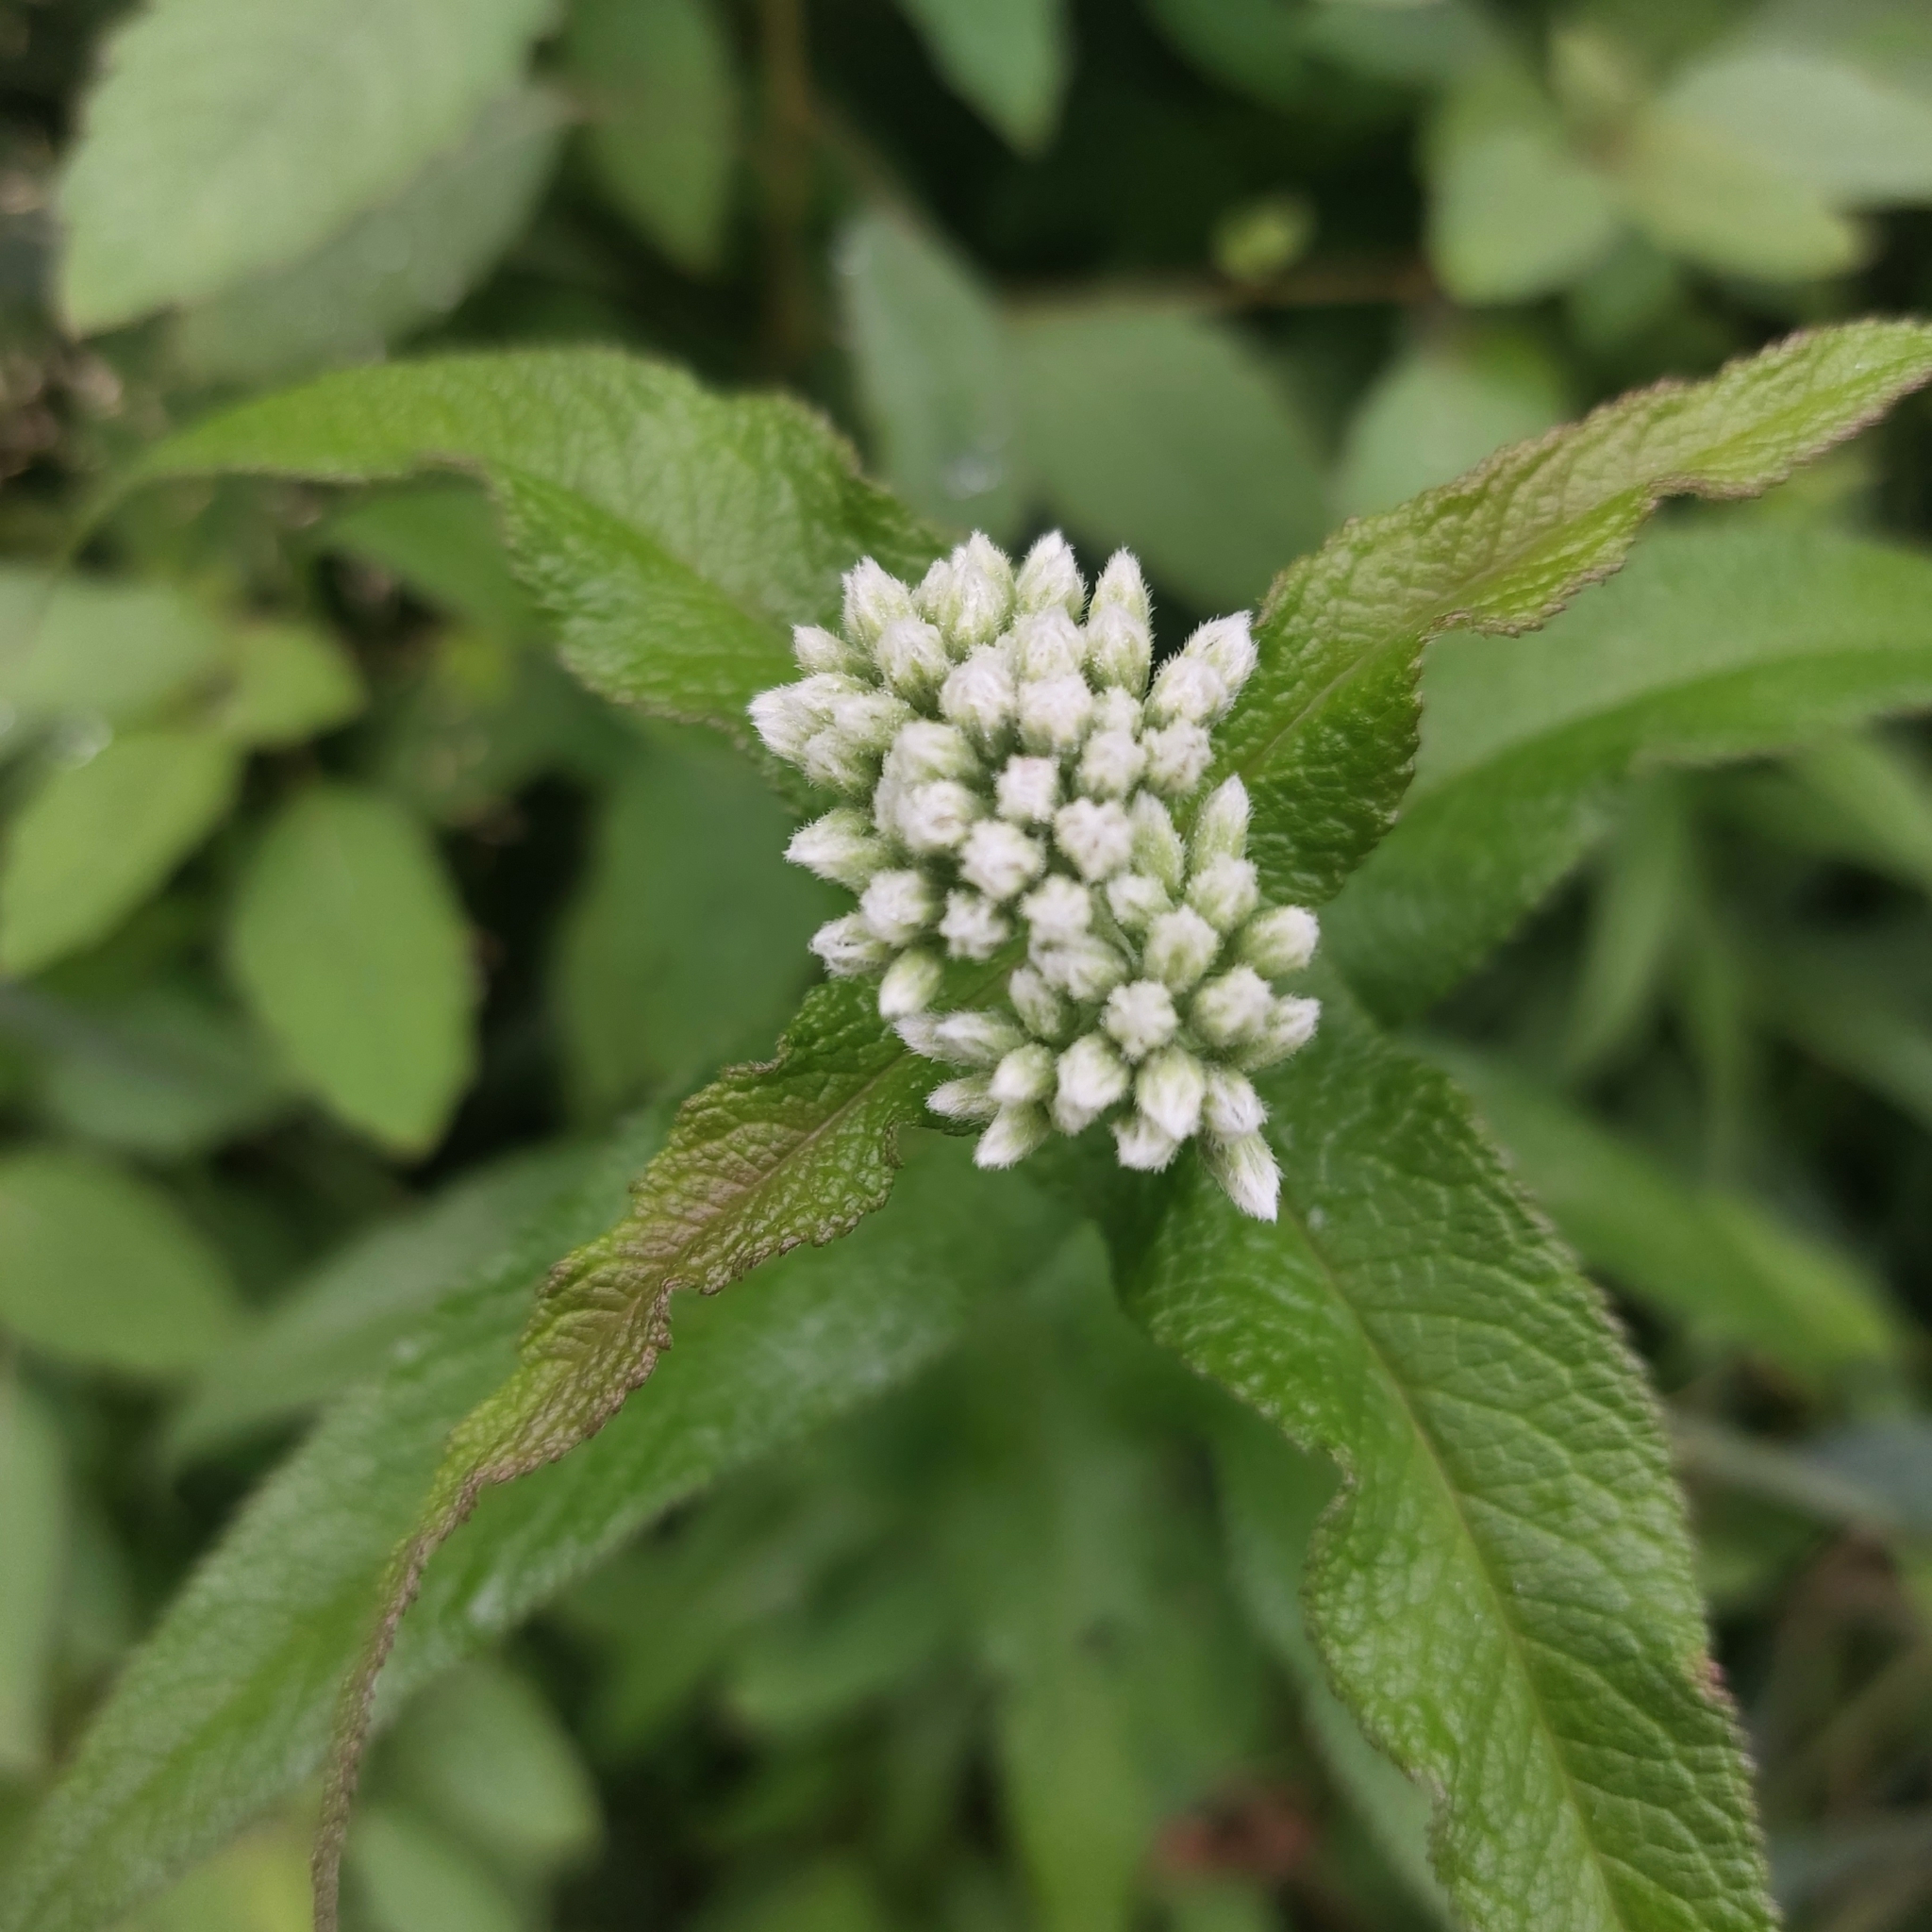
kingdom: Plantae
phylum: Tracheophyta
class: Magnoliopsida
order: Asterales
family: Asteraceae
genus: Eupatorium
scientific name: Eupatorium perfoliatum
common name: Boneset
